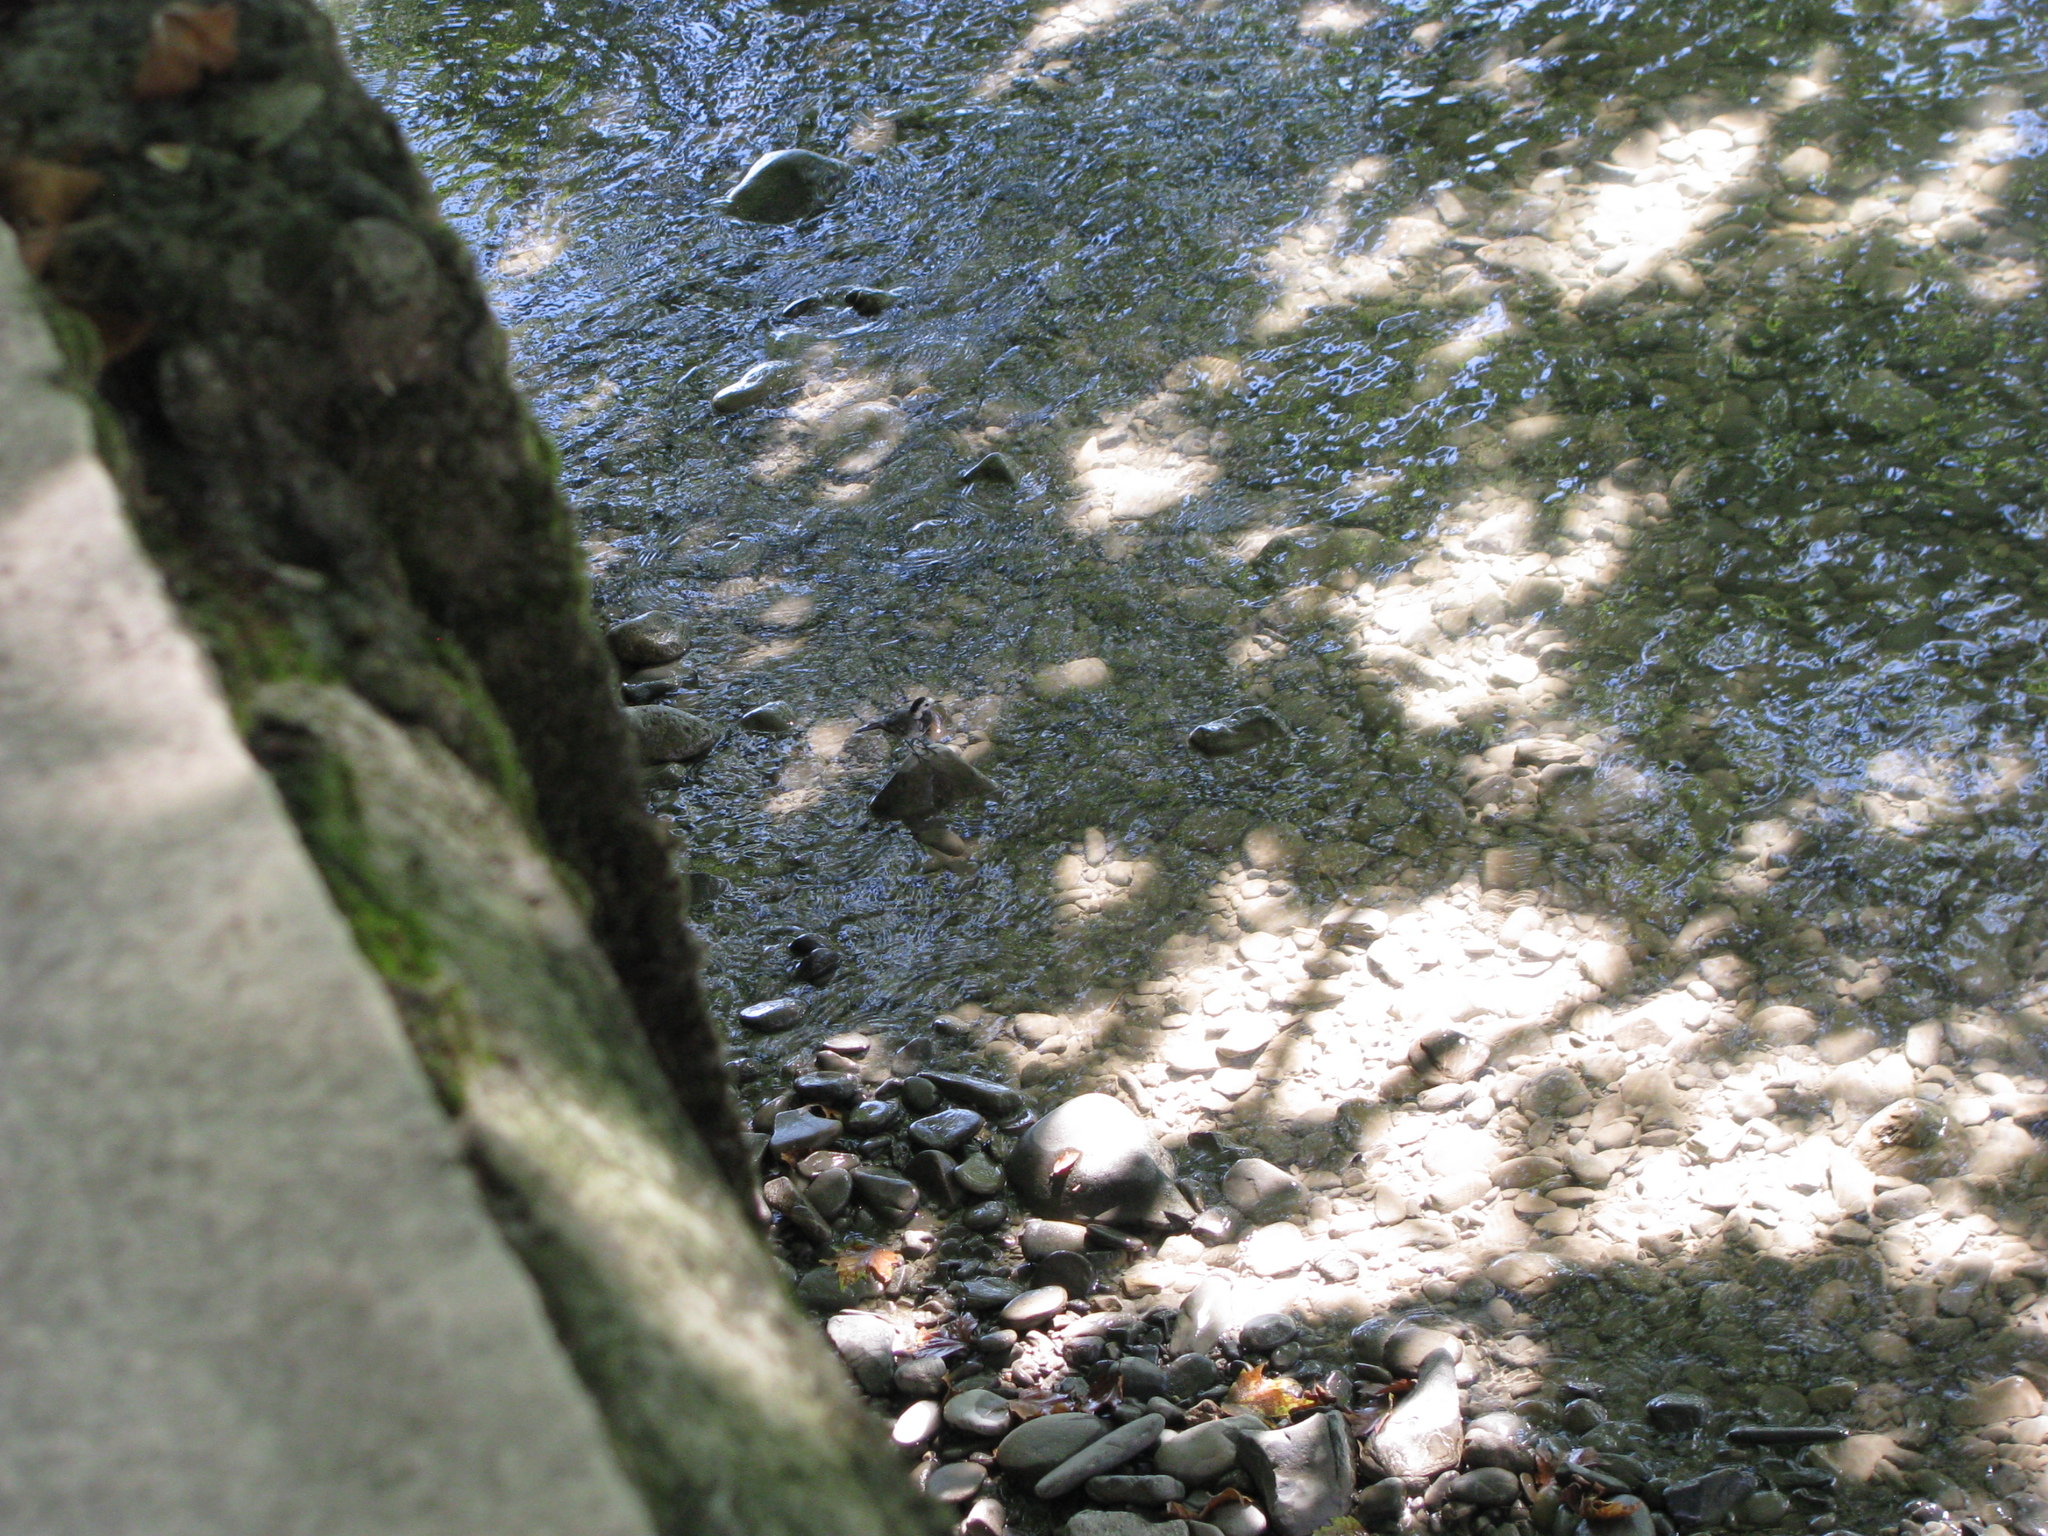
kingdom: Animalia
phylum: Chordata
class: Aves
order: Passeriformes
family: Motacillidae
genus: Motacilla
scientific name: Motacilla alba
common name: White wagtail
